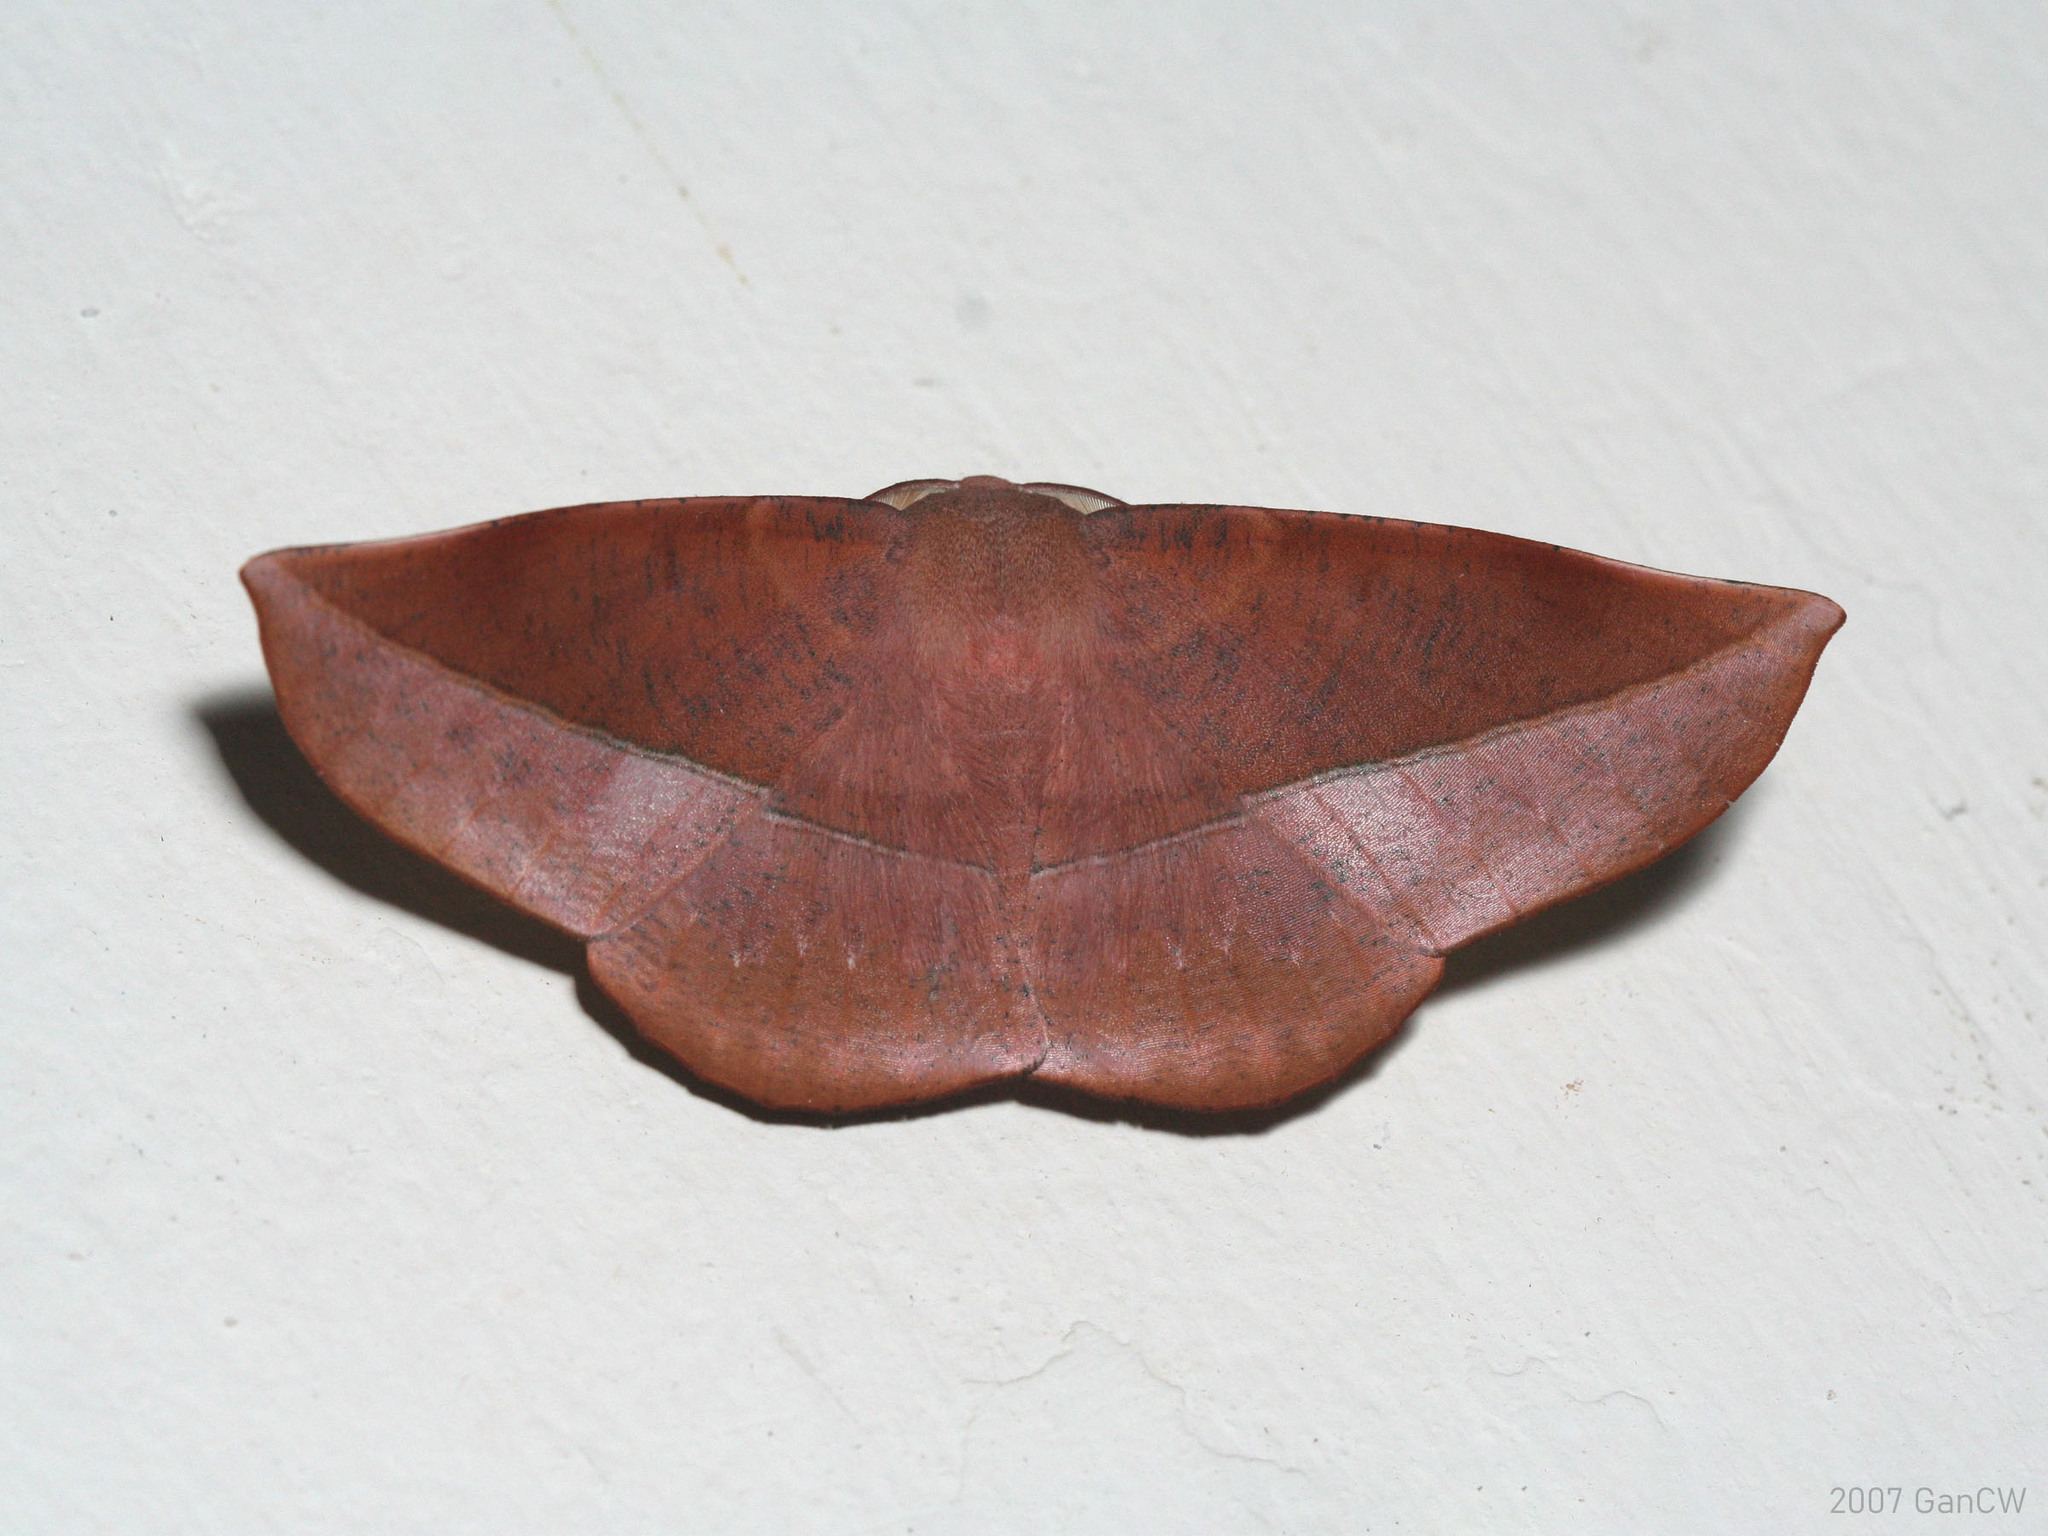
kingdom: Animalia
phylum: Arthropoda
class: Insecta
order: Lepidoptera
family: Geometridae
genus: Sarcinodes
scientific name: Sarcinodes sumatraria
